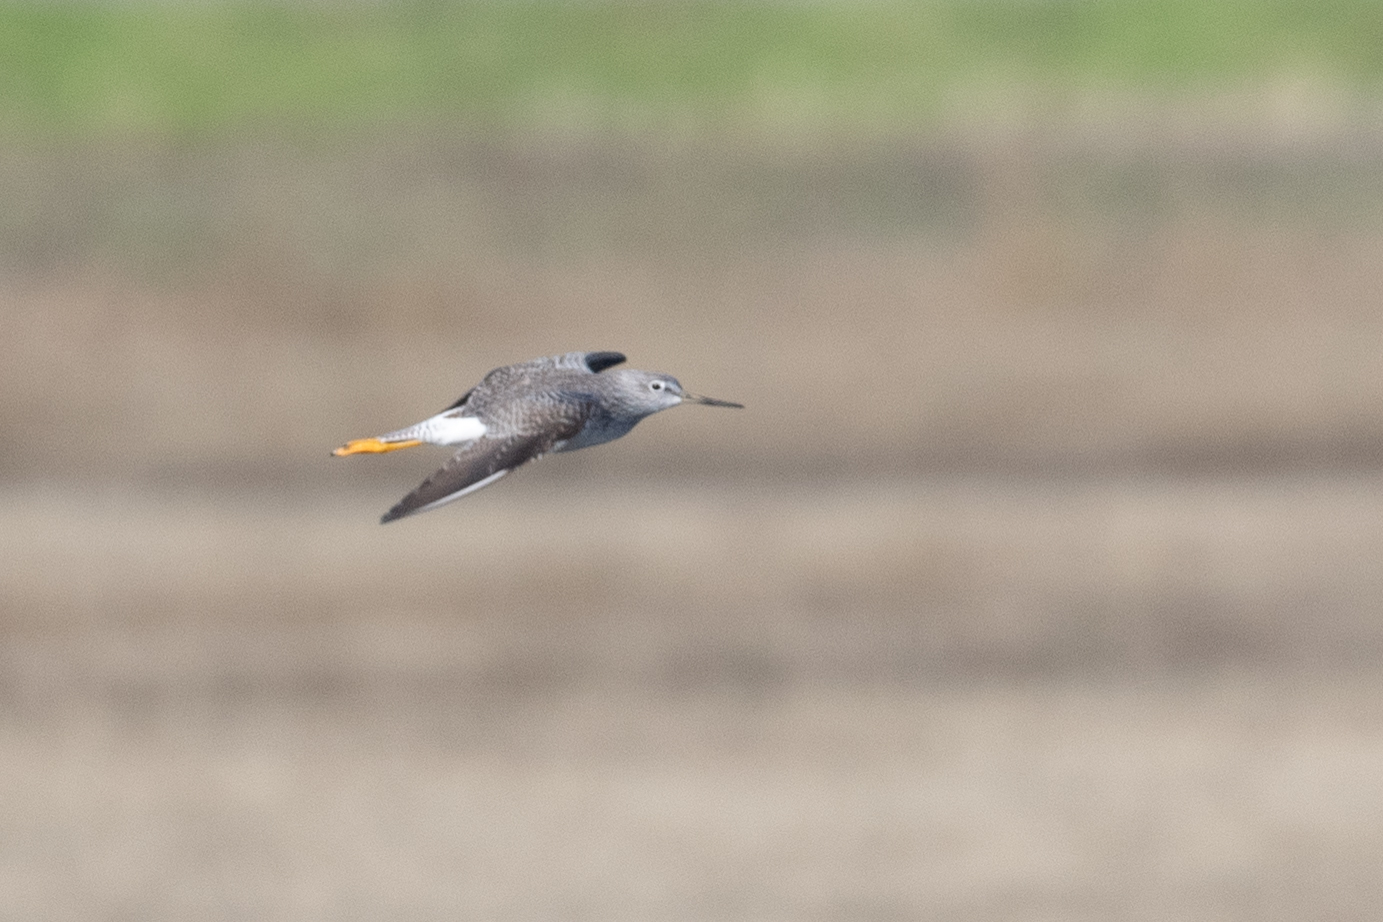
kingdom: Animalia
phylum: Chordata
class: Aves
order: Charadriiformes
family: Scolopacidae
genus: Tringa
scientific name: Tringa melanoleuca
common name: Greater yellowlegs
